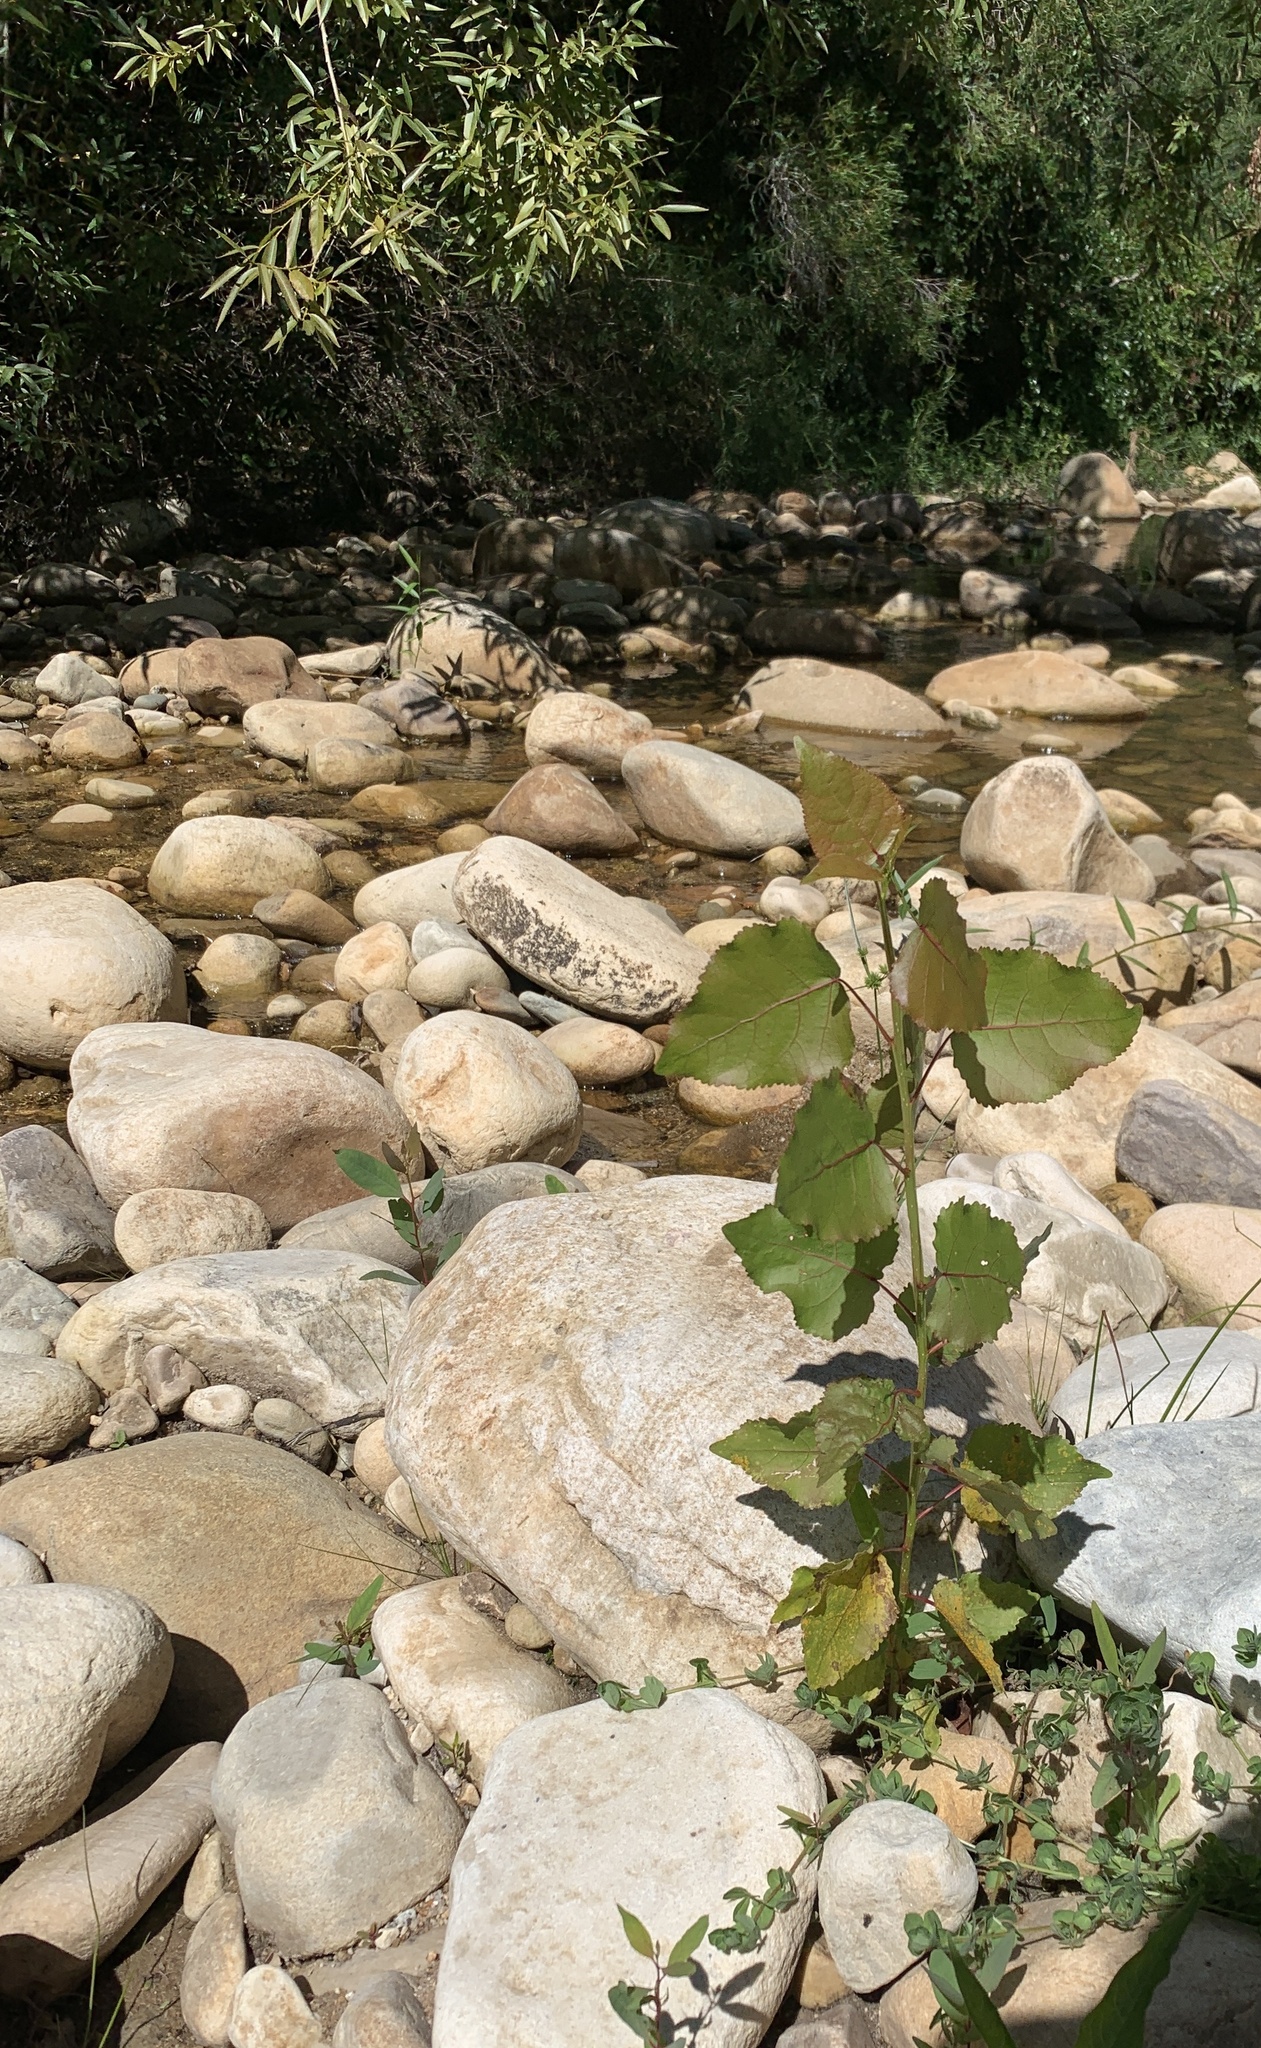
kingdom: Plantae
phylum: Tracheophyta
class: Magnoliopsida
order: Malpighiales
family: Salicaceae
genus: Populus
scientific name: Populus deltoides
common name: Eastern cottonwood
